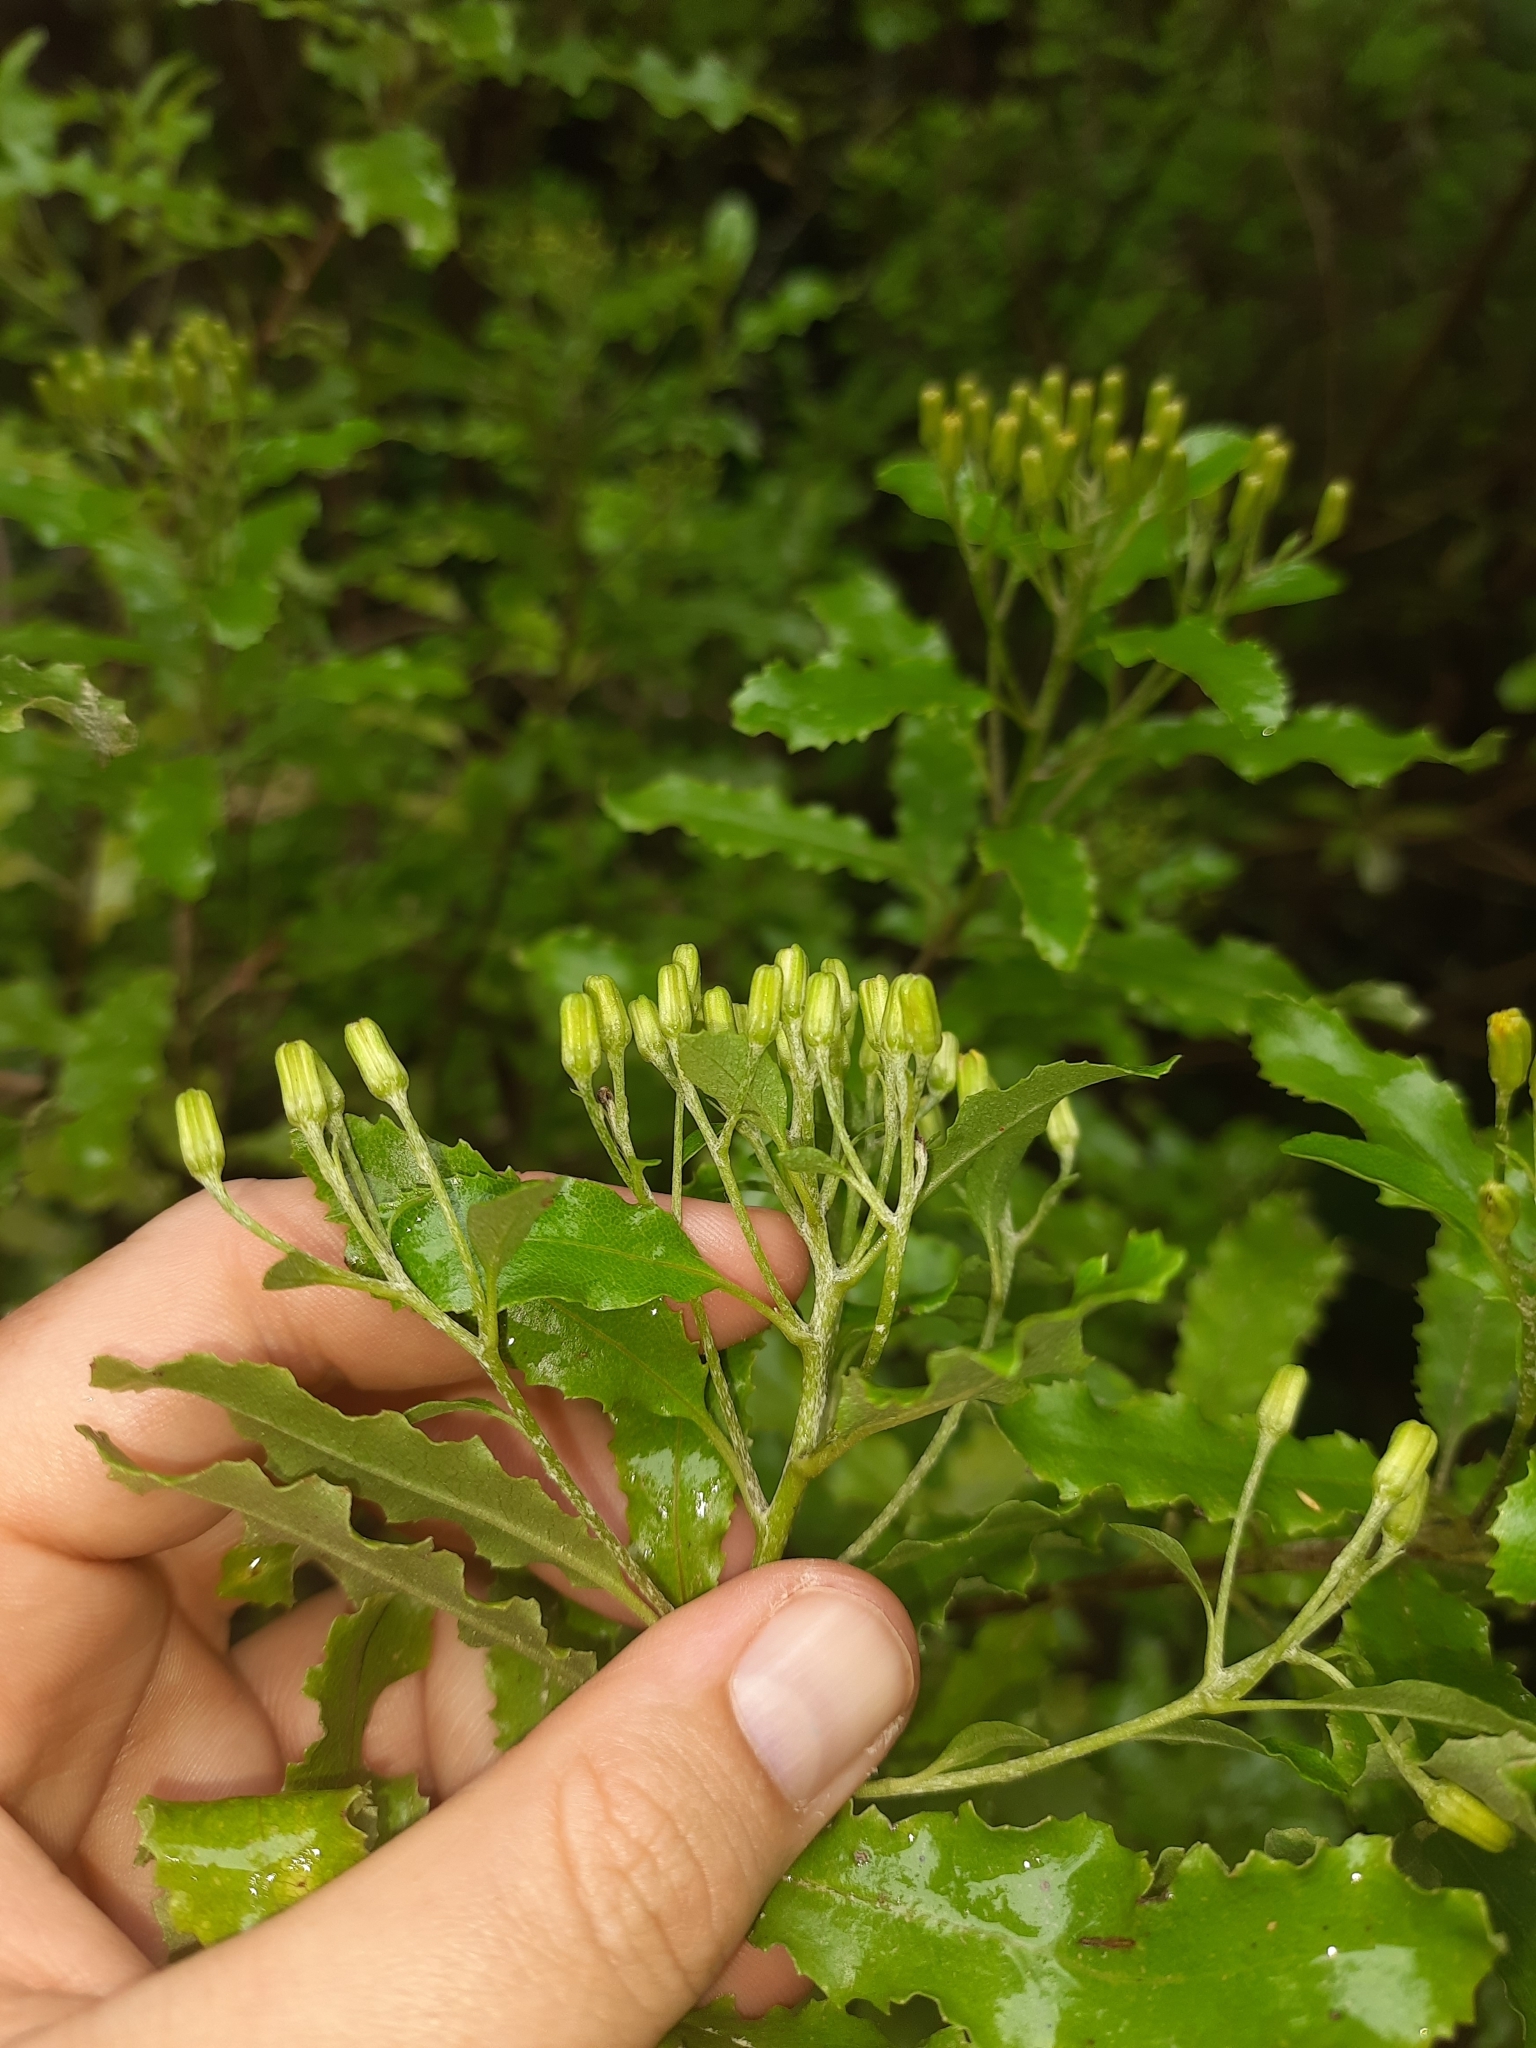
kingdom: Plantae
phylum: Tracheophyta
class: Magnoliopsida
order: Asterales
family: Asteraceae
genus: Brachyglottis
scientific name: Brachyglottis perdicioides
